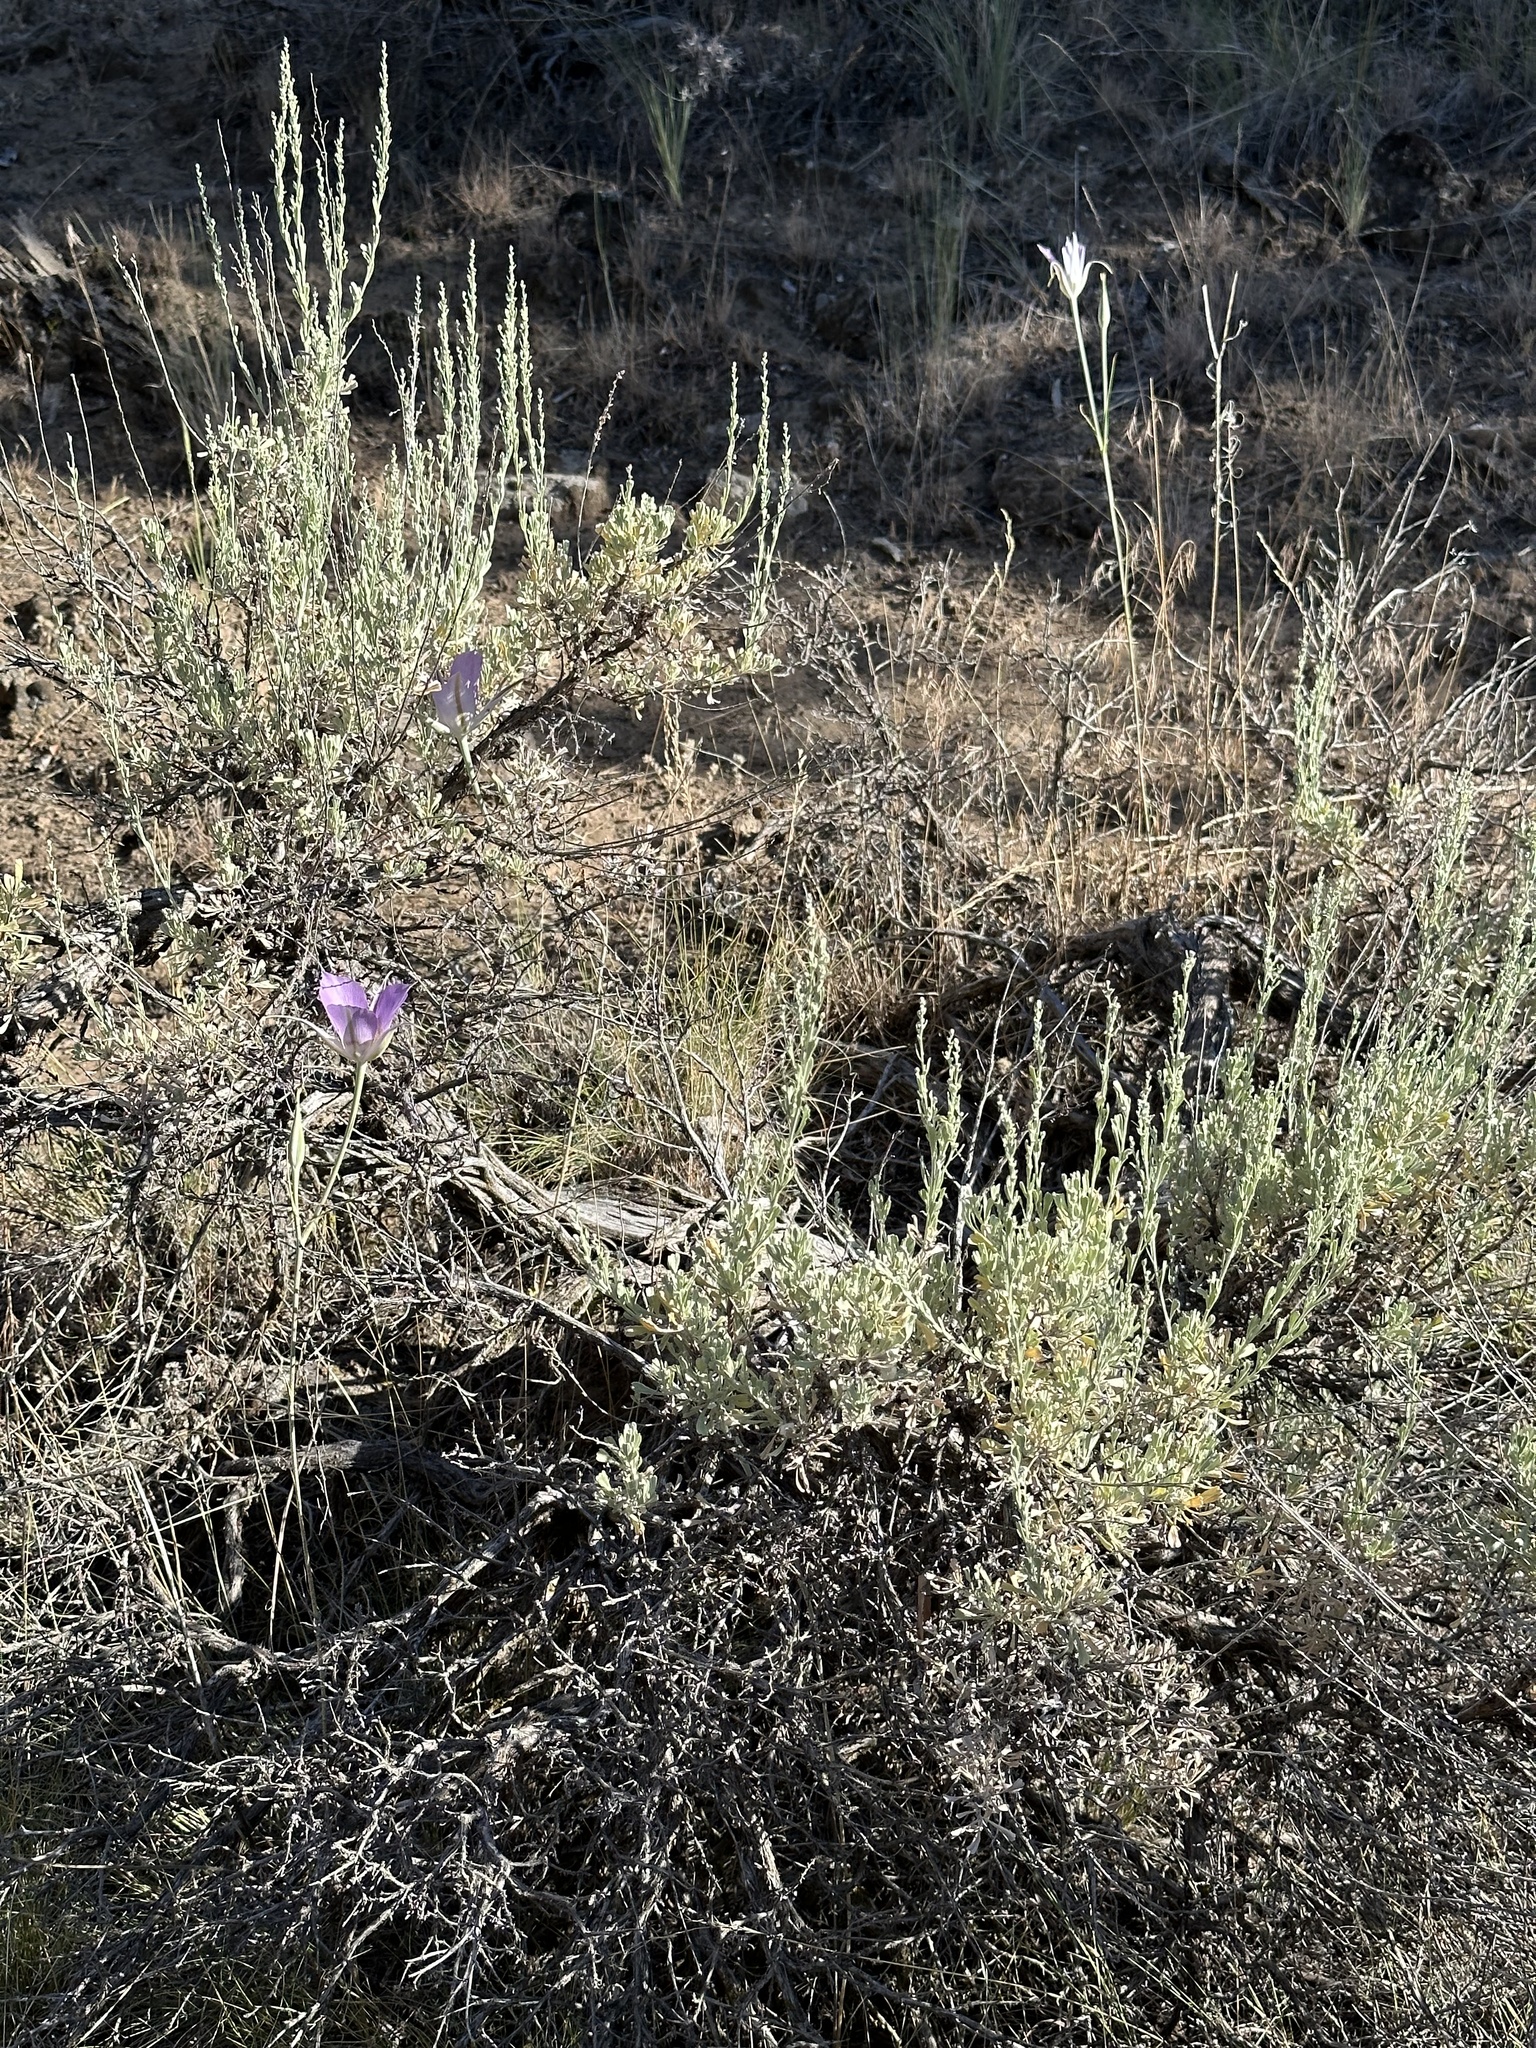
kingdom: Plantae
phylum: Tracheophyta
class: Liliopsida
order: Liliales
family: Liliaceae
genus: Calochortus
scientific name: Calochortus macrocarpus
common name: Green-band mariposa lily
